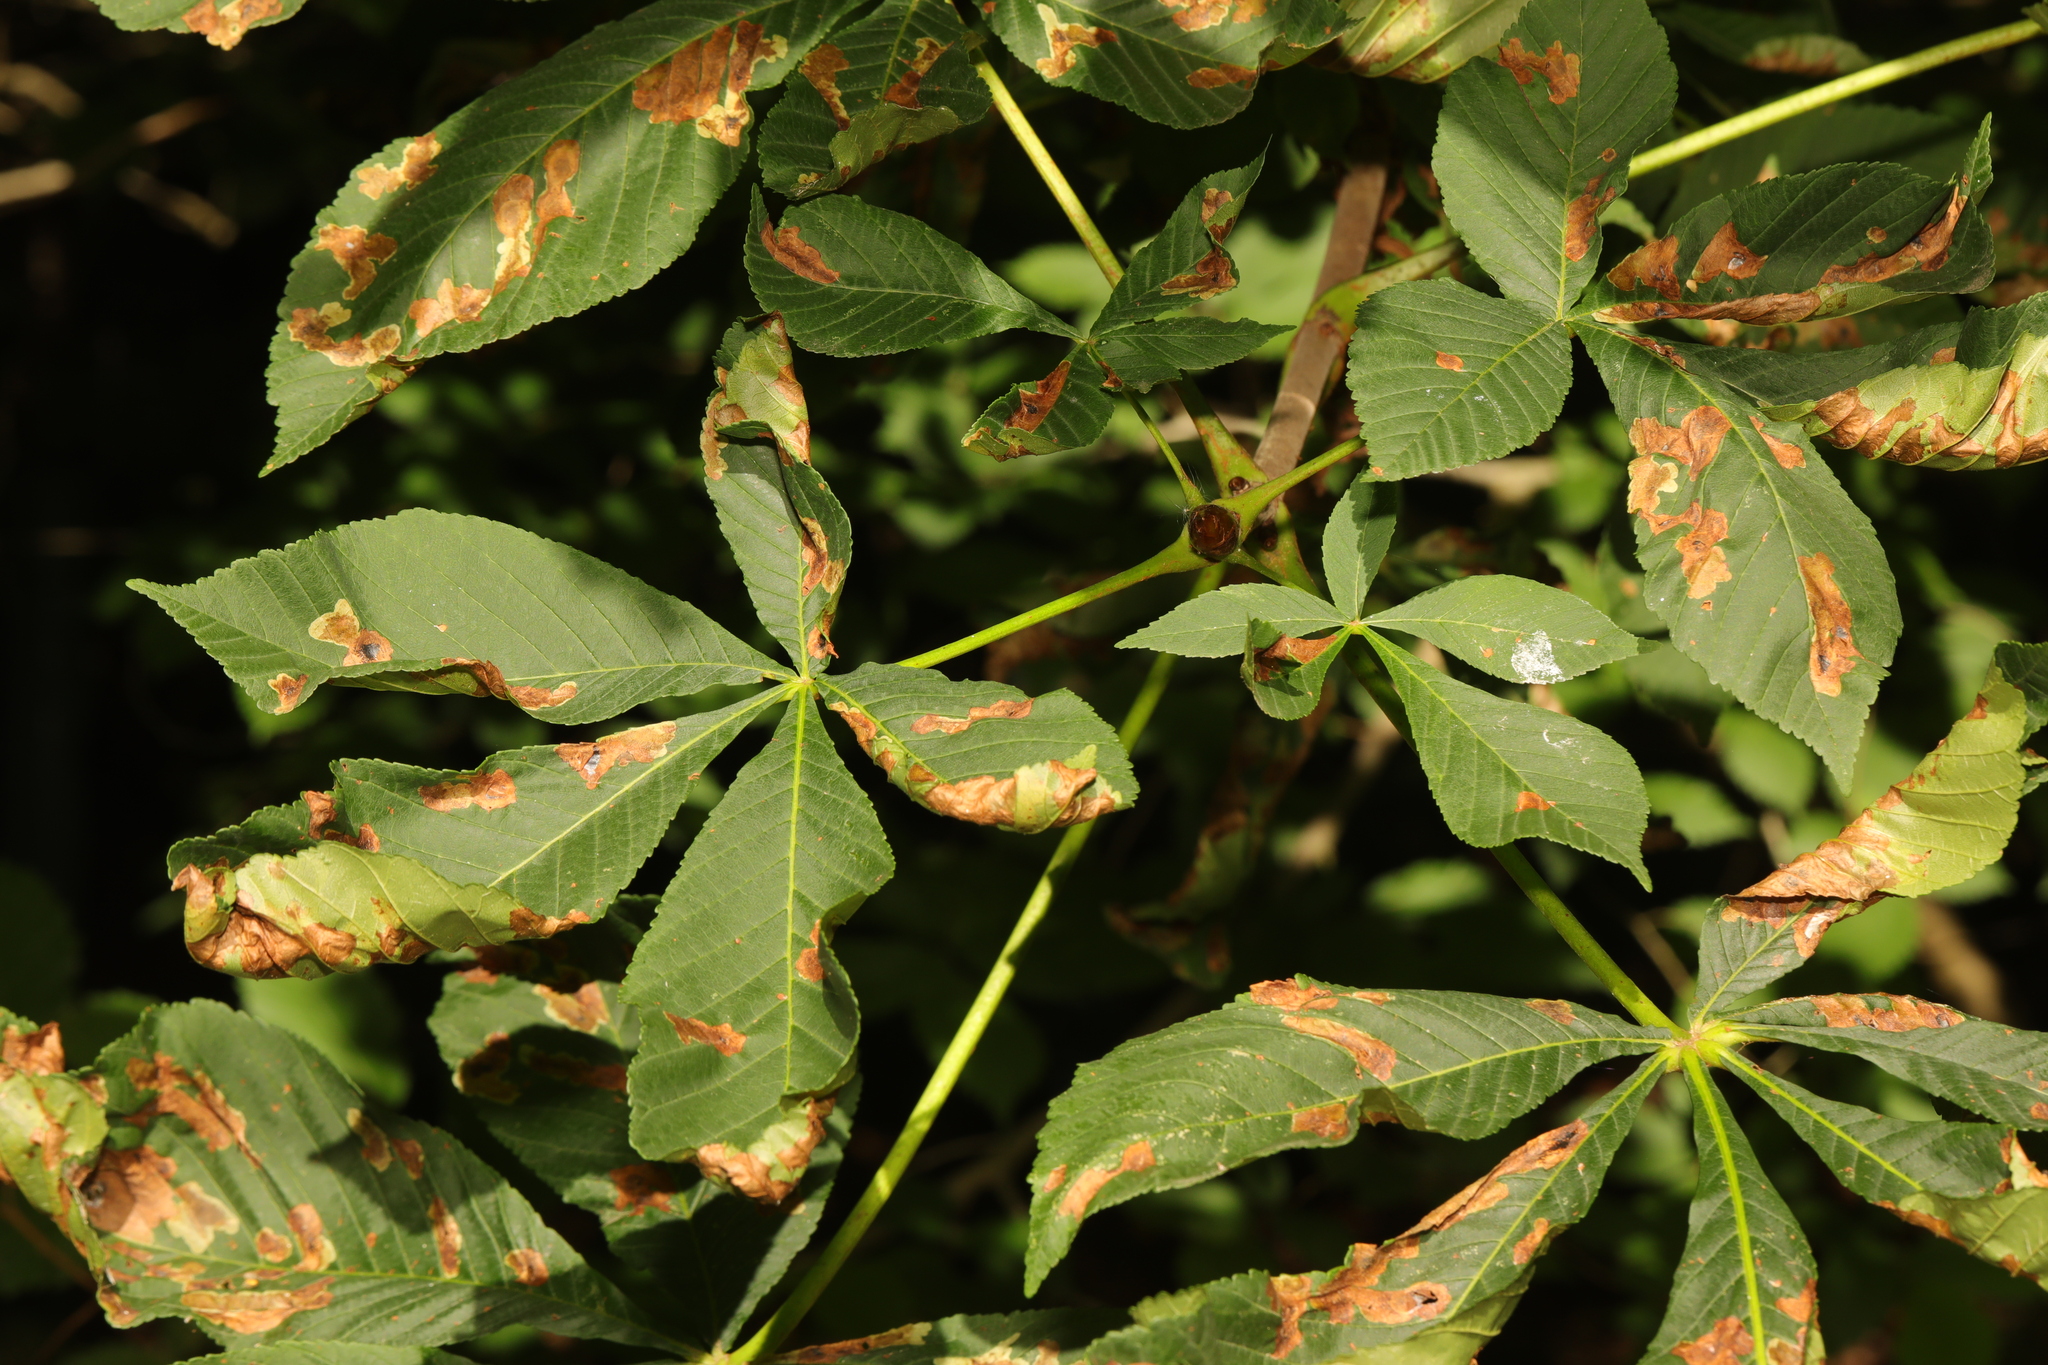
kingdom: Plantae
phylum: Tracheophyta
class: Magnoliopsida
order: Sapindales
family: Sapindaceae
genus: Aesculus
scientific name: Aesculus hippocastanum
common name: Horse-chestnut
